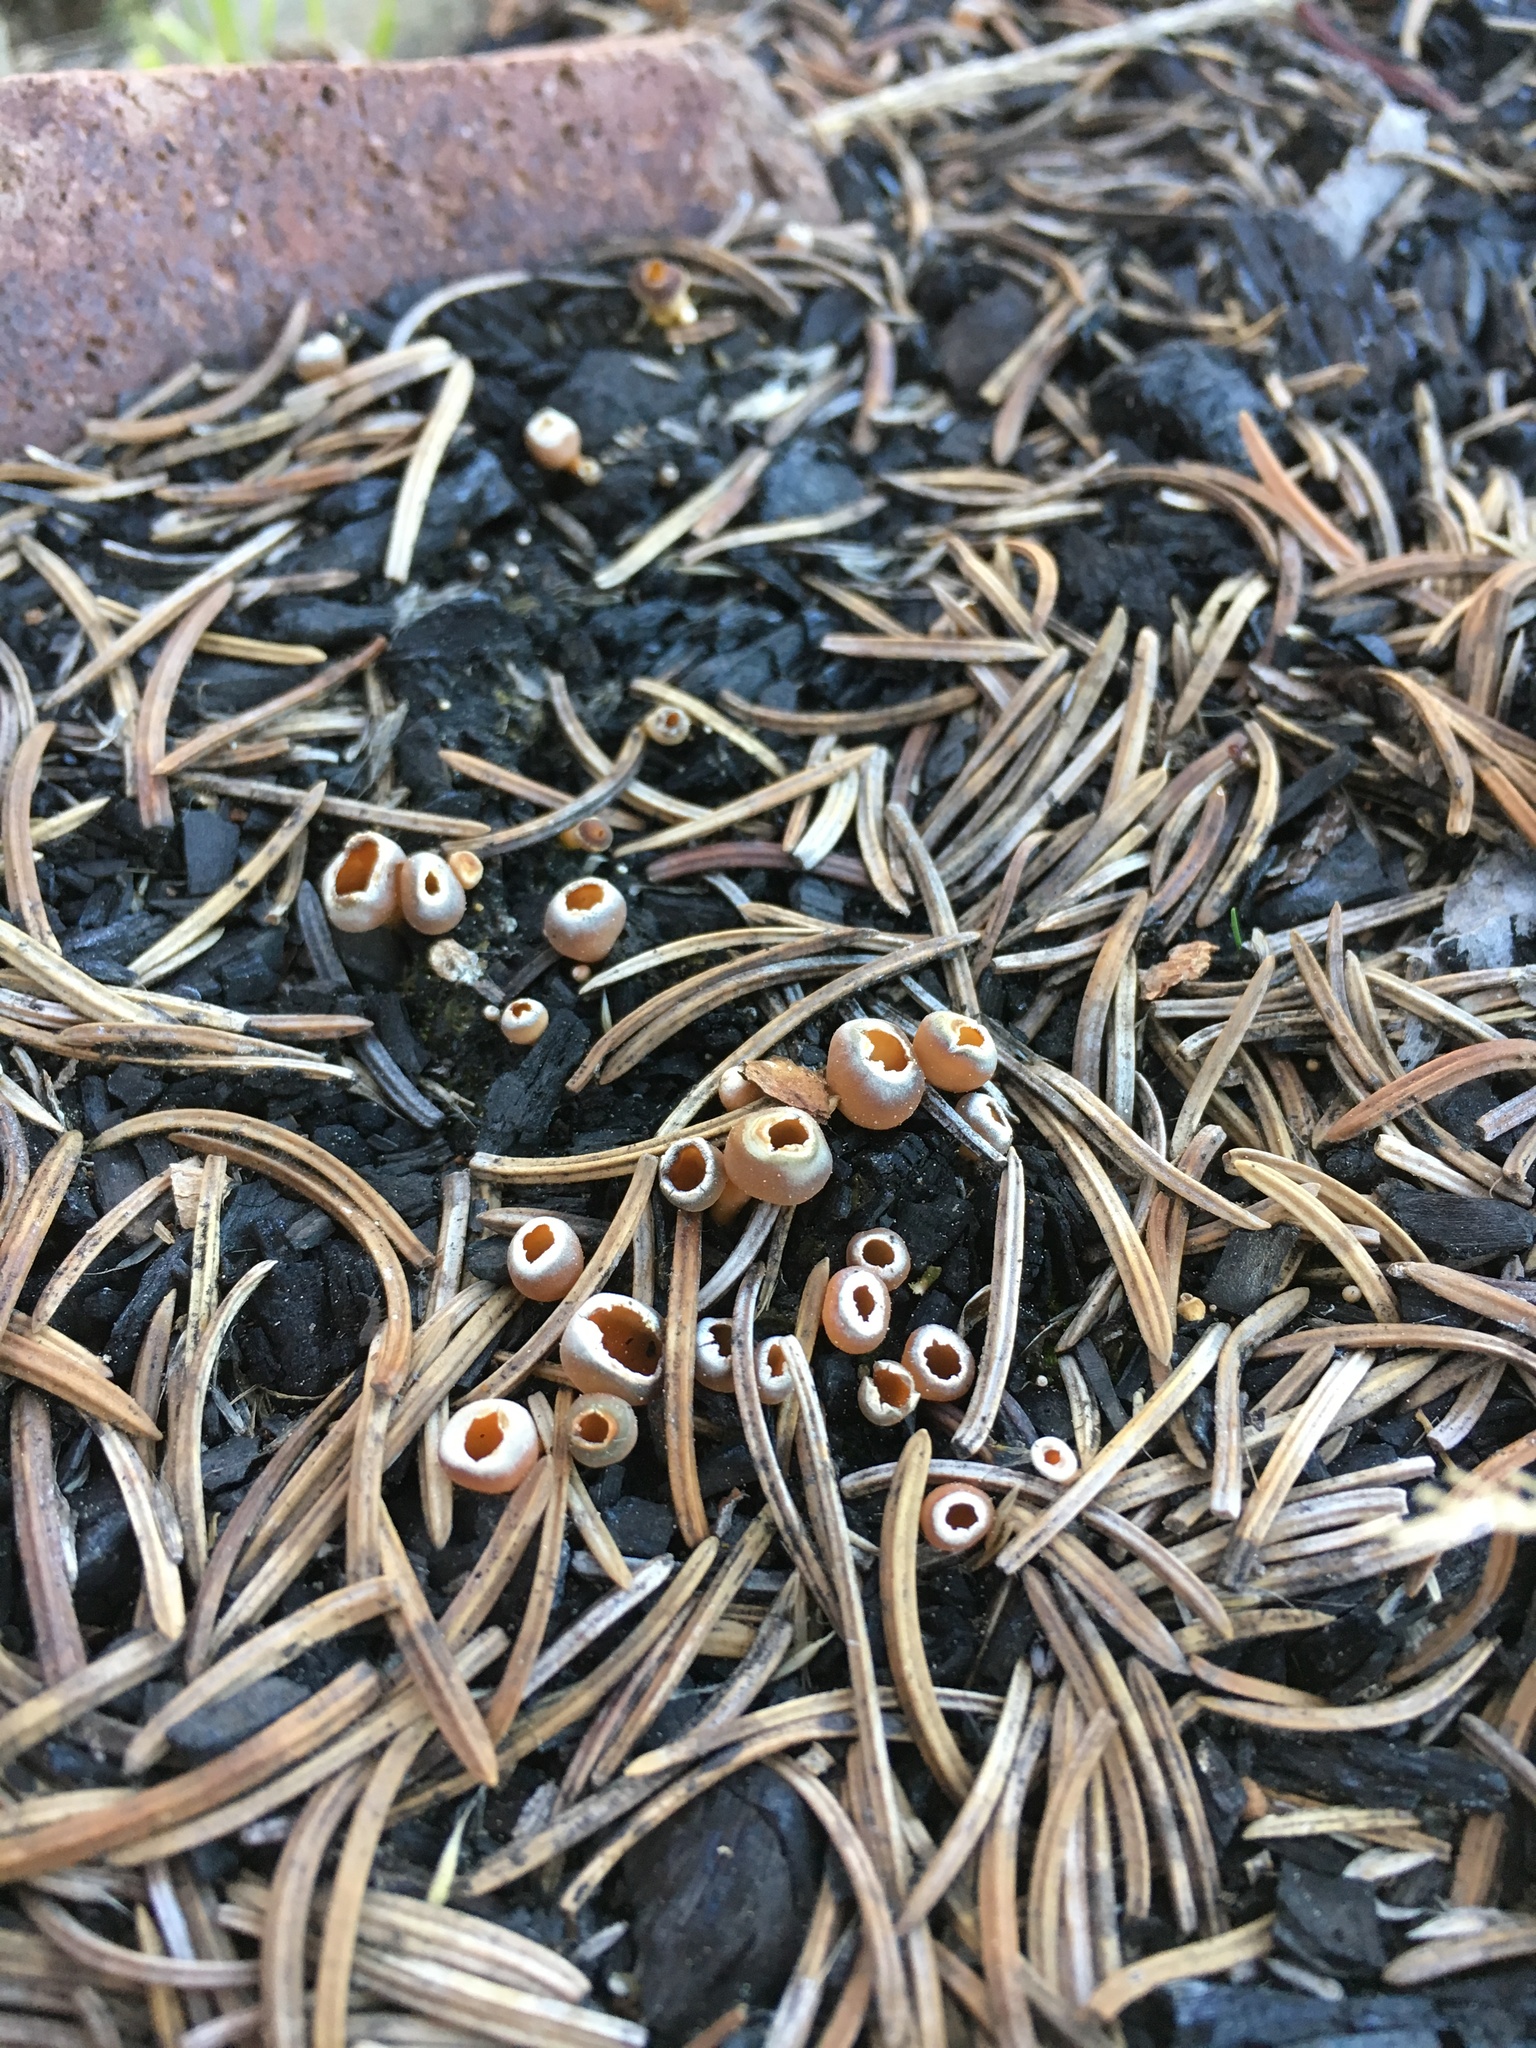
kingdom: Fungi
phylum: Ascomycota
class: Pezizomycetes
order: Pezizales
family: Pyronemataceae
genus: Geopyxis
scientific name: Geopyxis carbonaria
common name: Stalked bonfire cup
